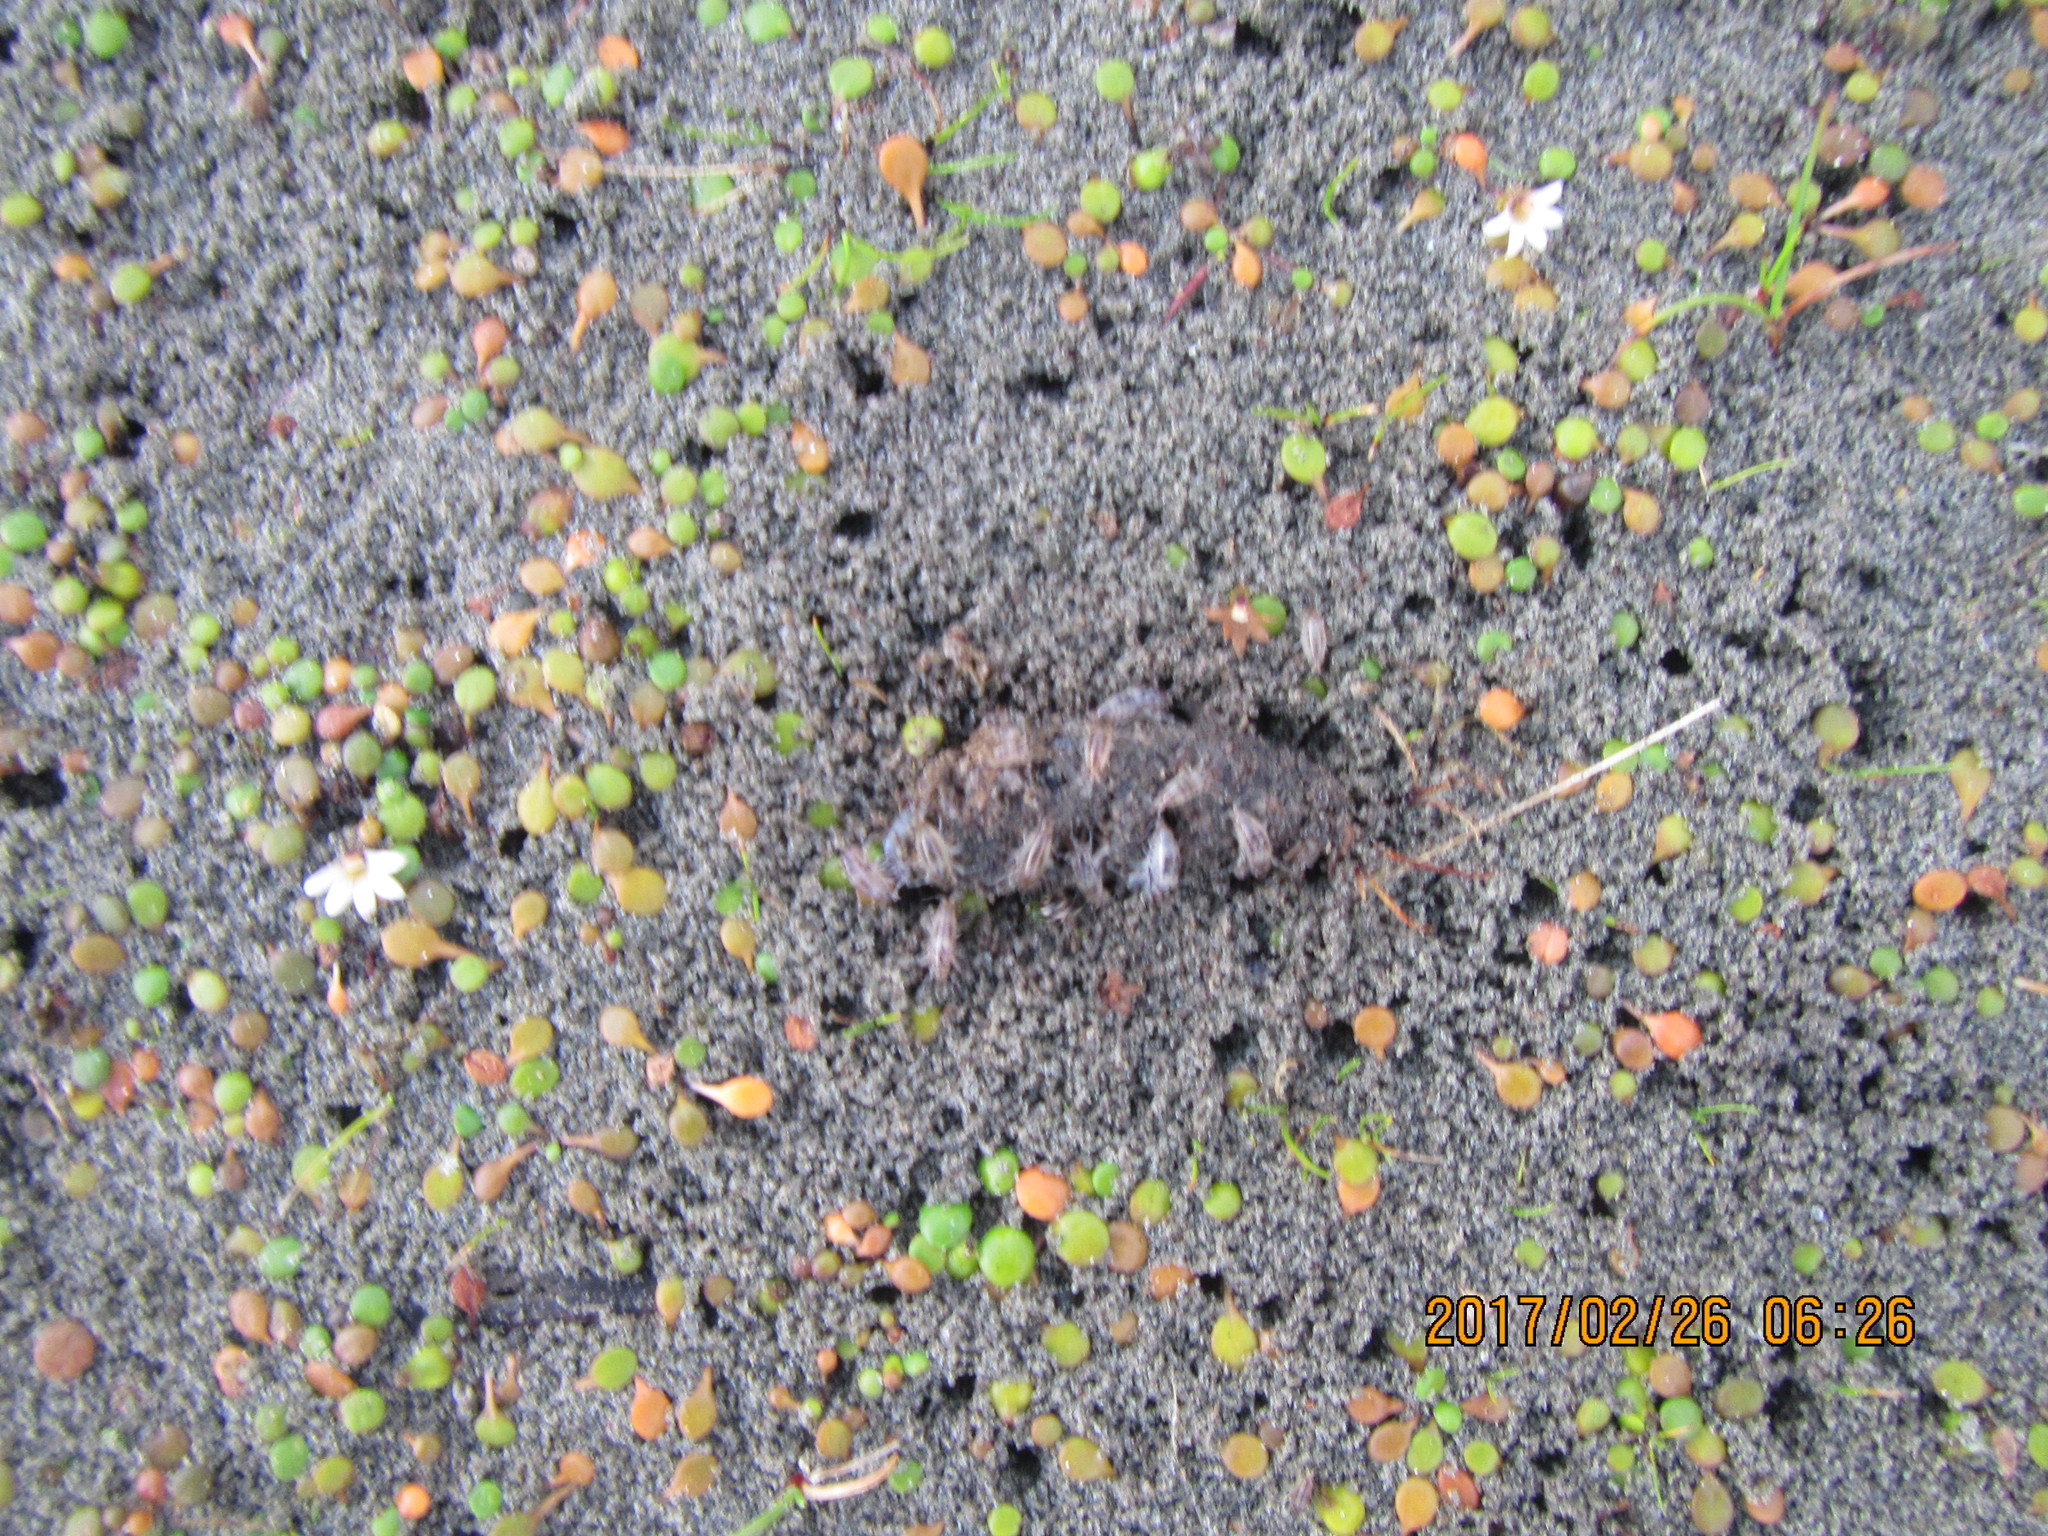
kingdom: Plantae
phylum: Tracheophyta
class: Magnoliopsida
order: Asterales
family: Goodeniaceae
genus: Goodenia
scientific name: Goodenia heenanii
